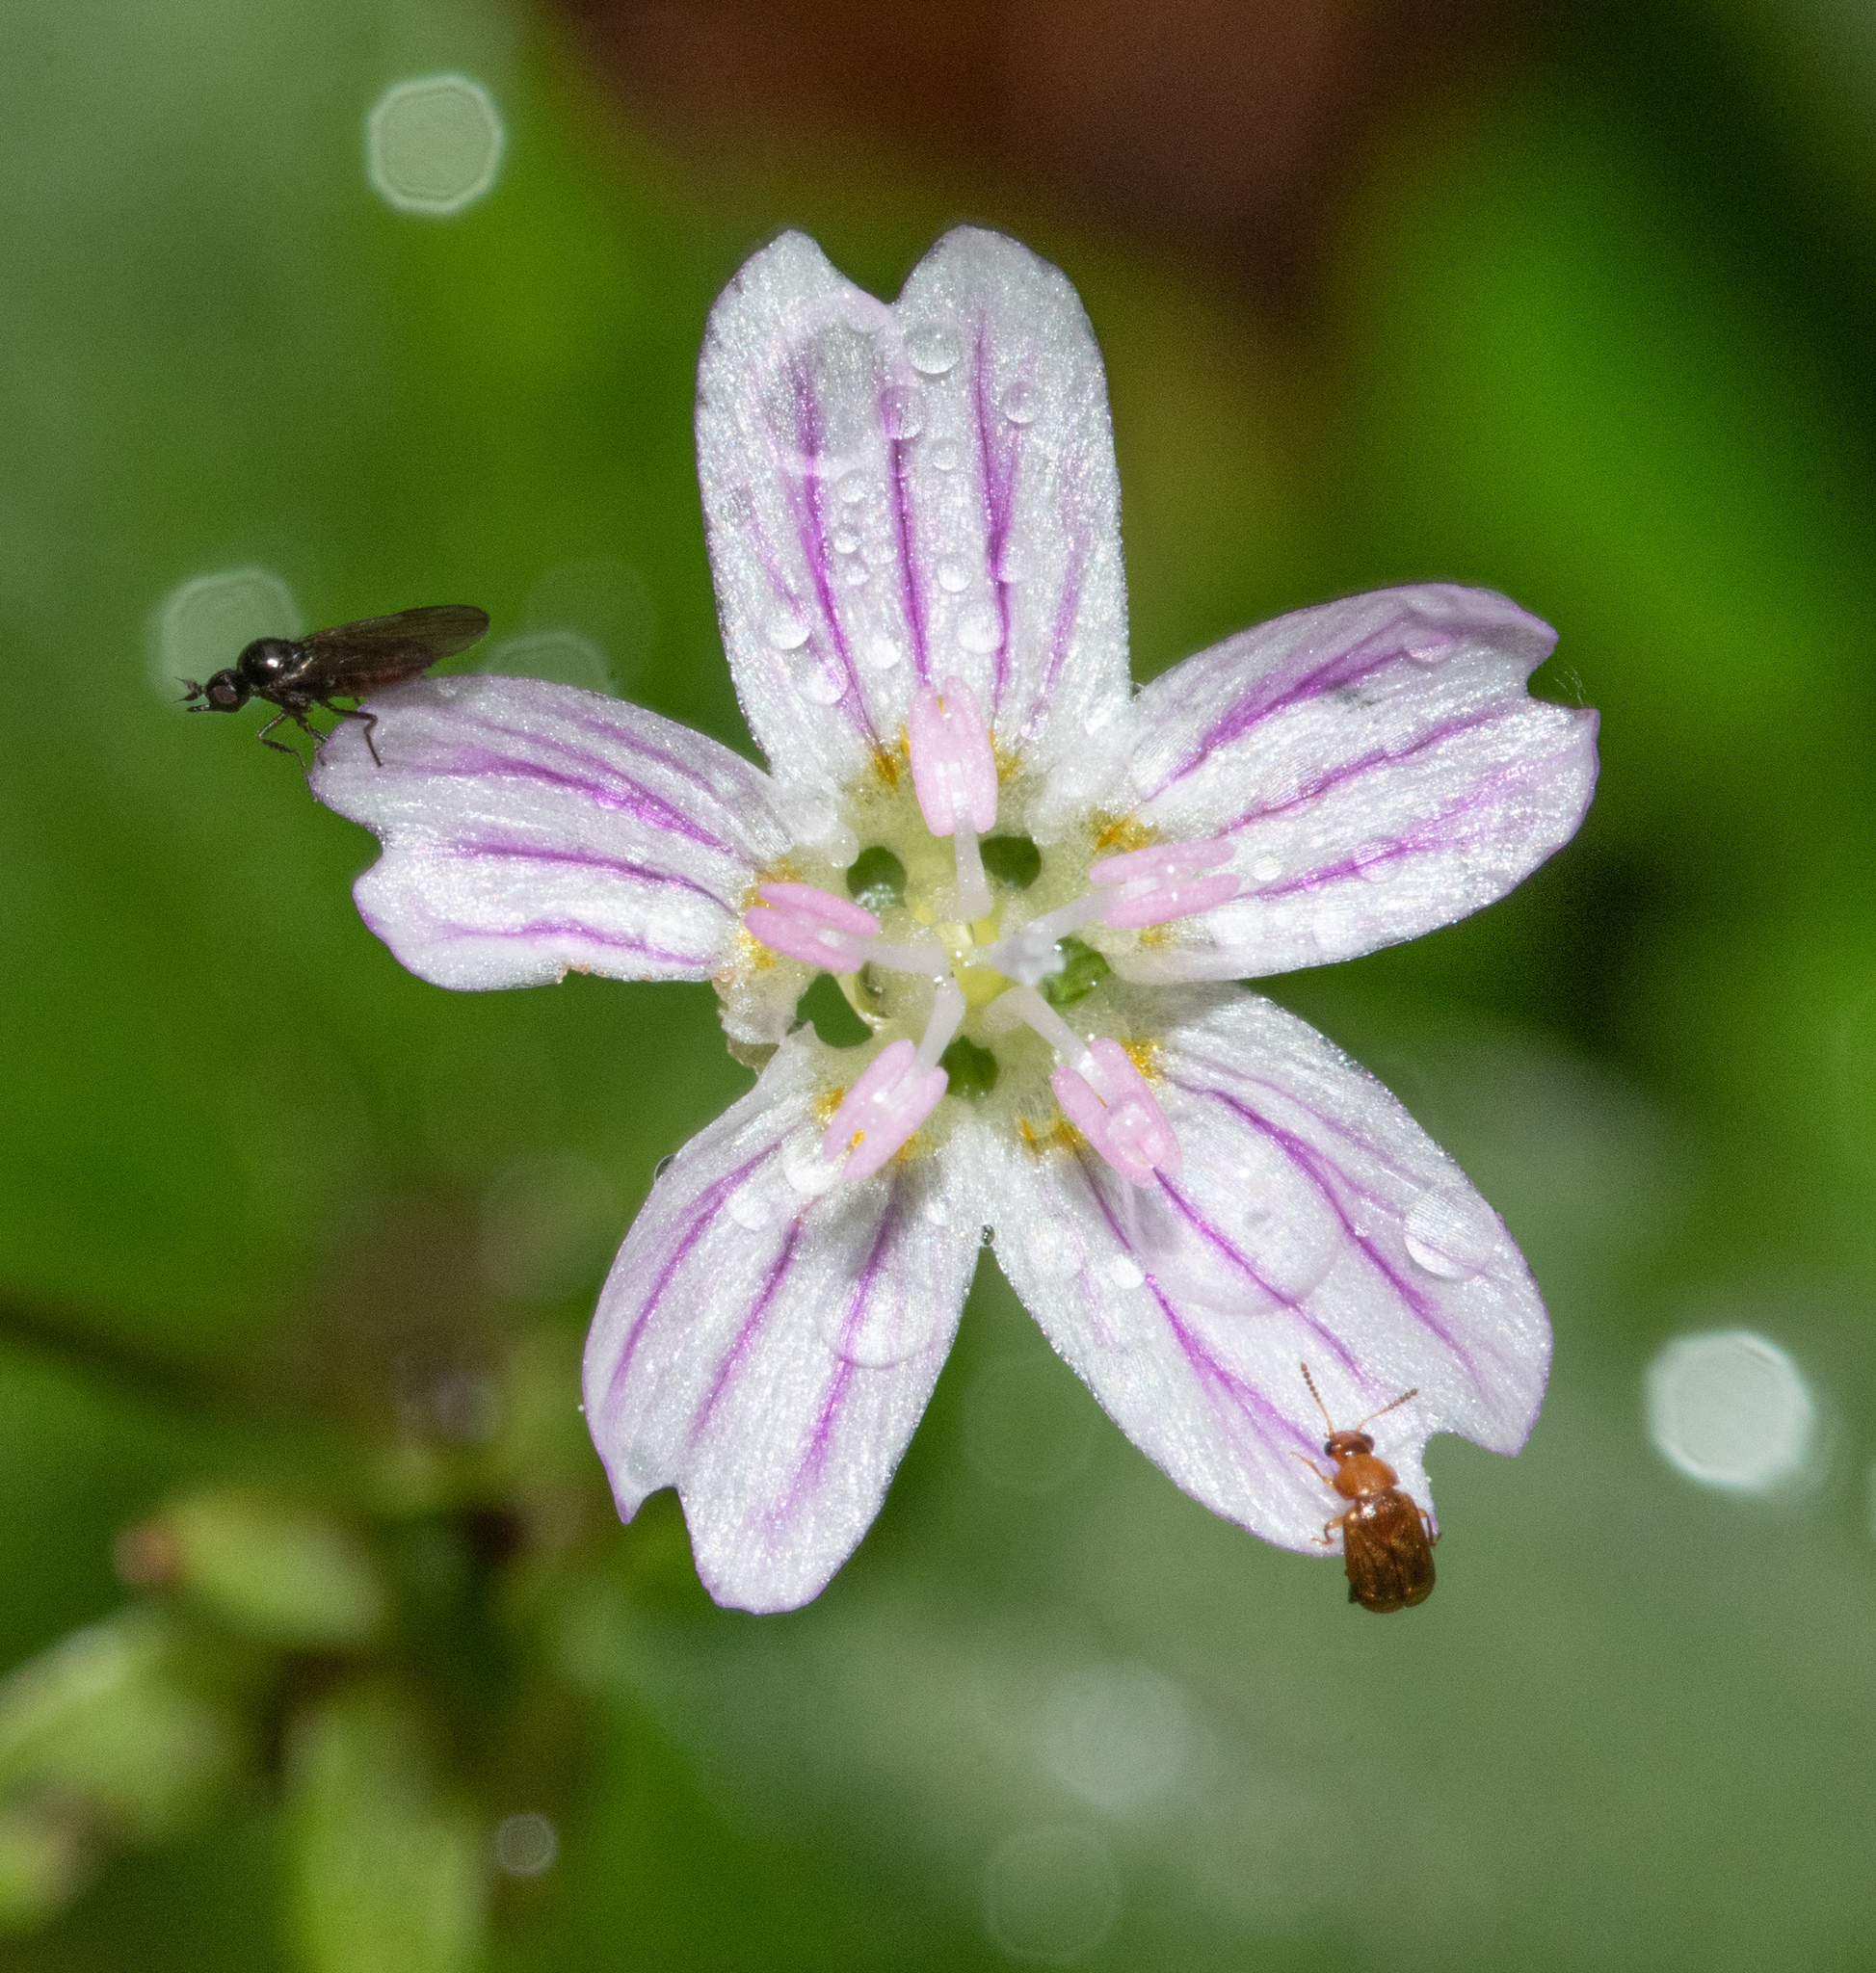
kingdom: Plantae
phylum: Tracheophyta
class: Magnoliopsida
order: Caryophyllales
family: Montiaceae
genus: Claytonia
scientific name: Claytonia sibirica
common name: Pink purslane
